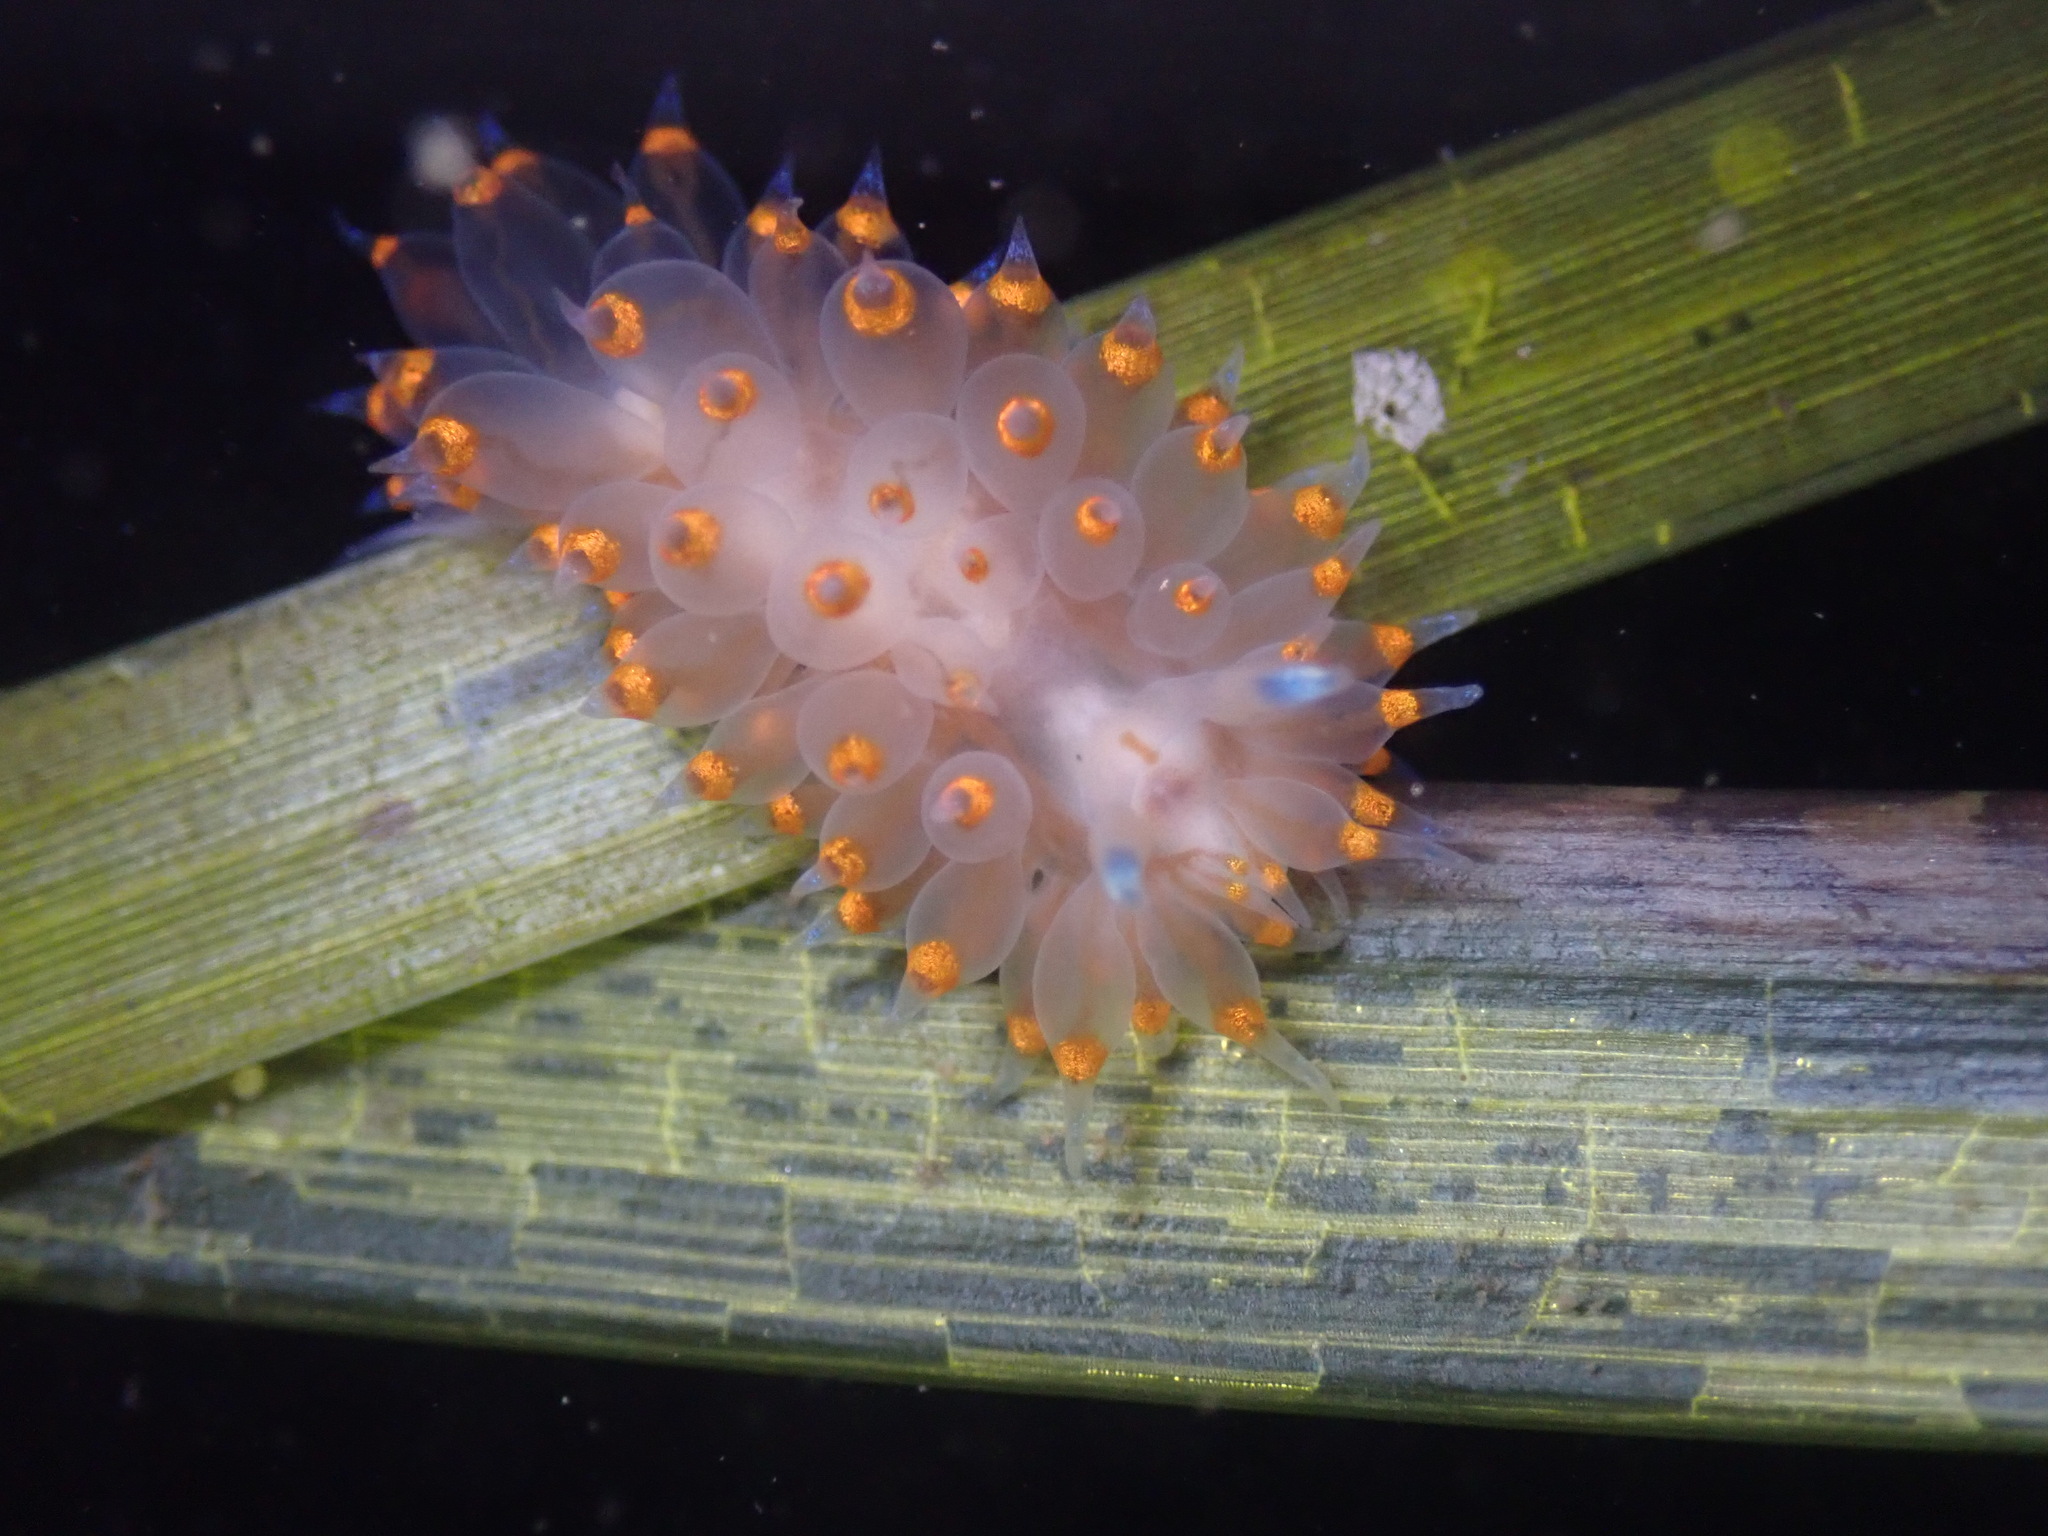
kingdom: Animalia
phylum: Mollusca
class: Gastropoda
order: Nudibranchia
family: Janolidae
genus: Antiopella
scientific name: Antiopella barbarensis
